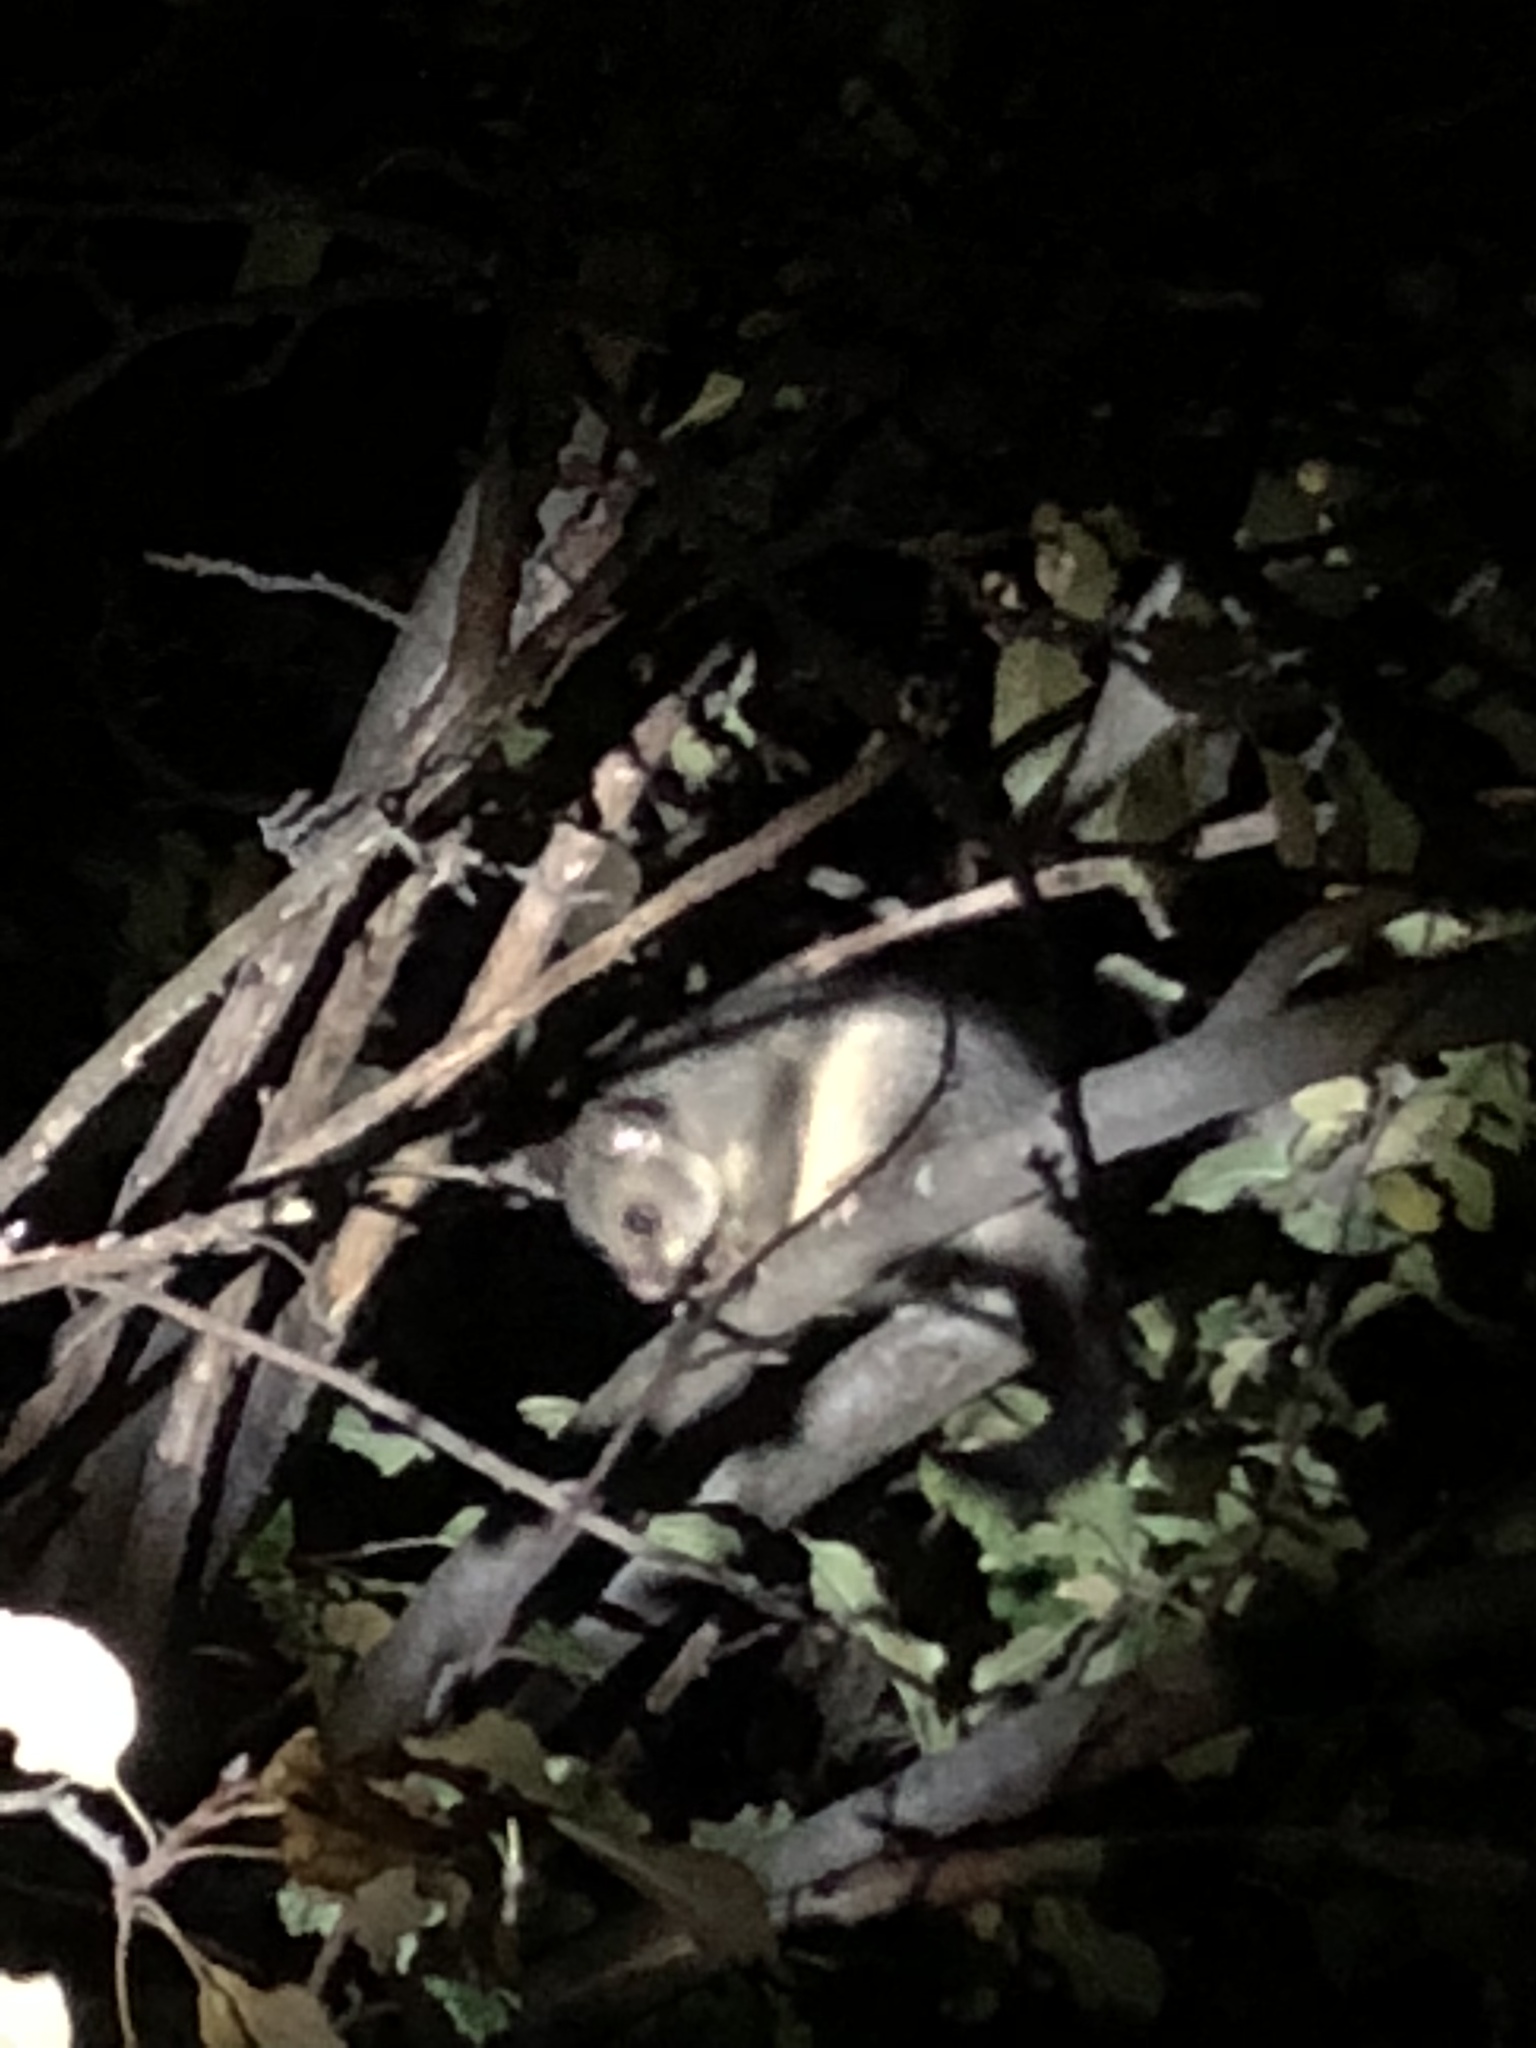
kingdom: Animalia
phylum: Chordata
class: Mammalia
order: Diprotodontia
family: Phalangeridae
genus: Trichosurus
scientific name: Trichosurus vulpecula
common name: Common brushtail
